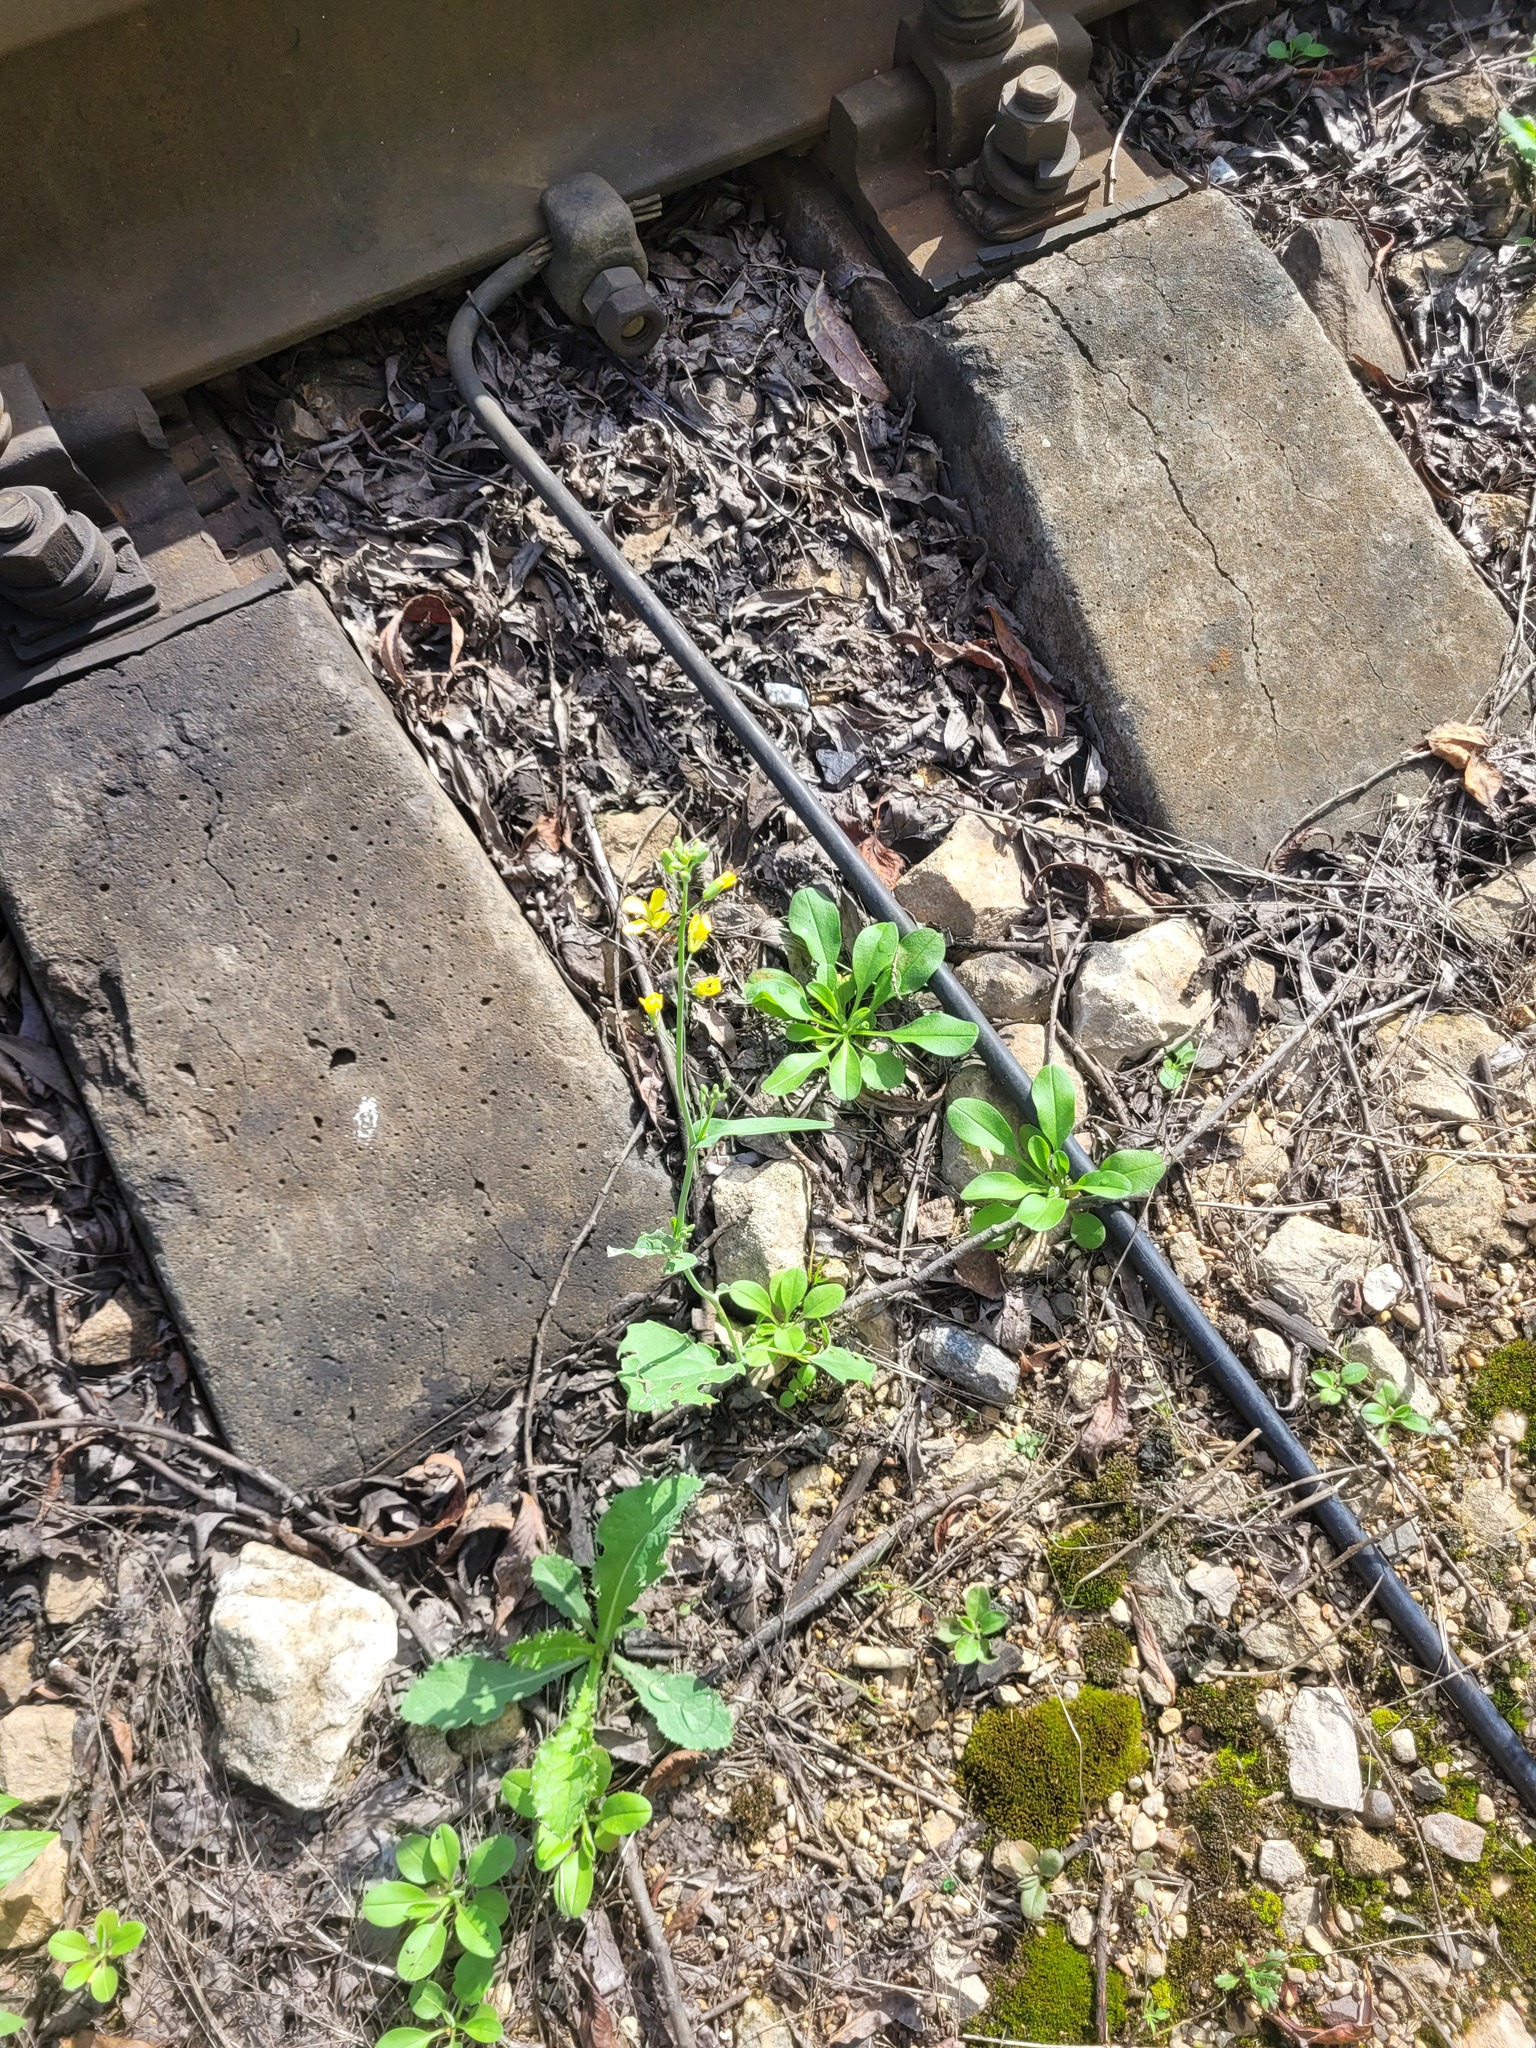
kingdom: Plantae
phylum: Tracheophyta
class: Magnoliopsida
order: Brassicales
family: Brassicaceae
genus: Brassica
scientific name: Brassica napus
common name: Rape
